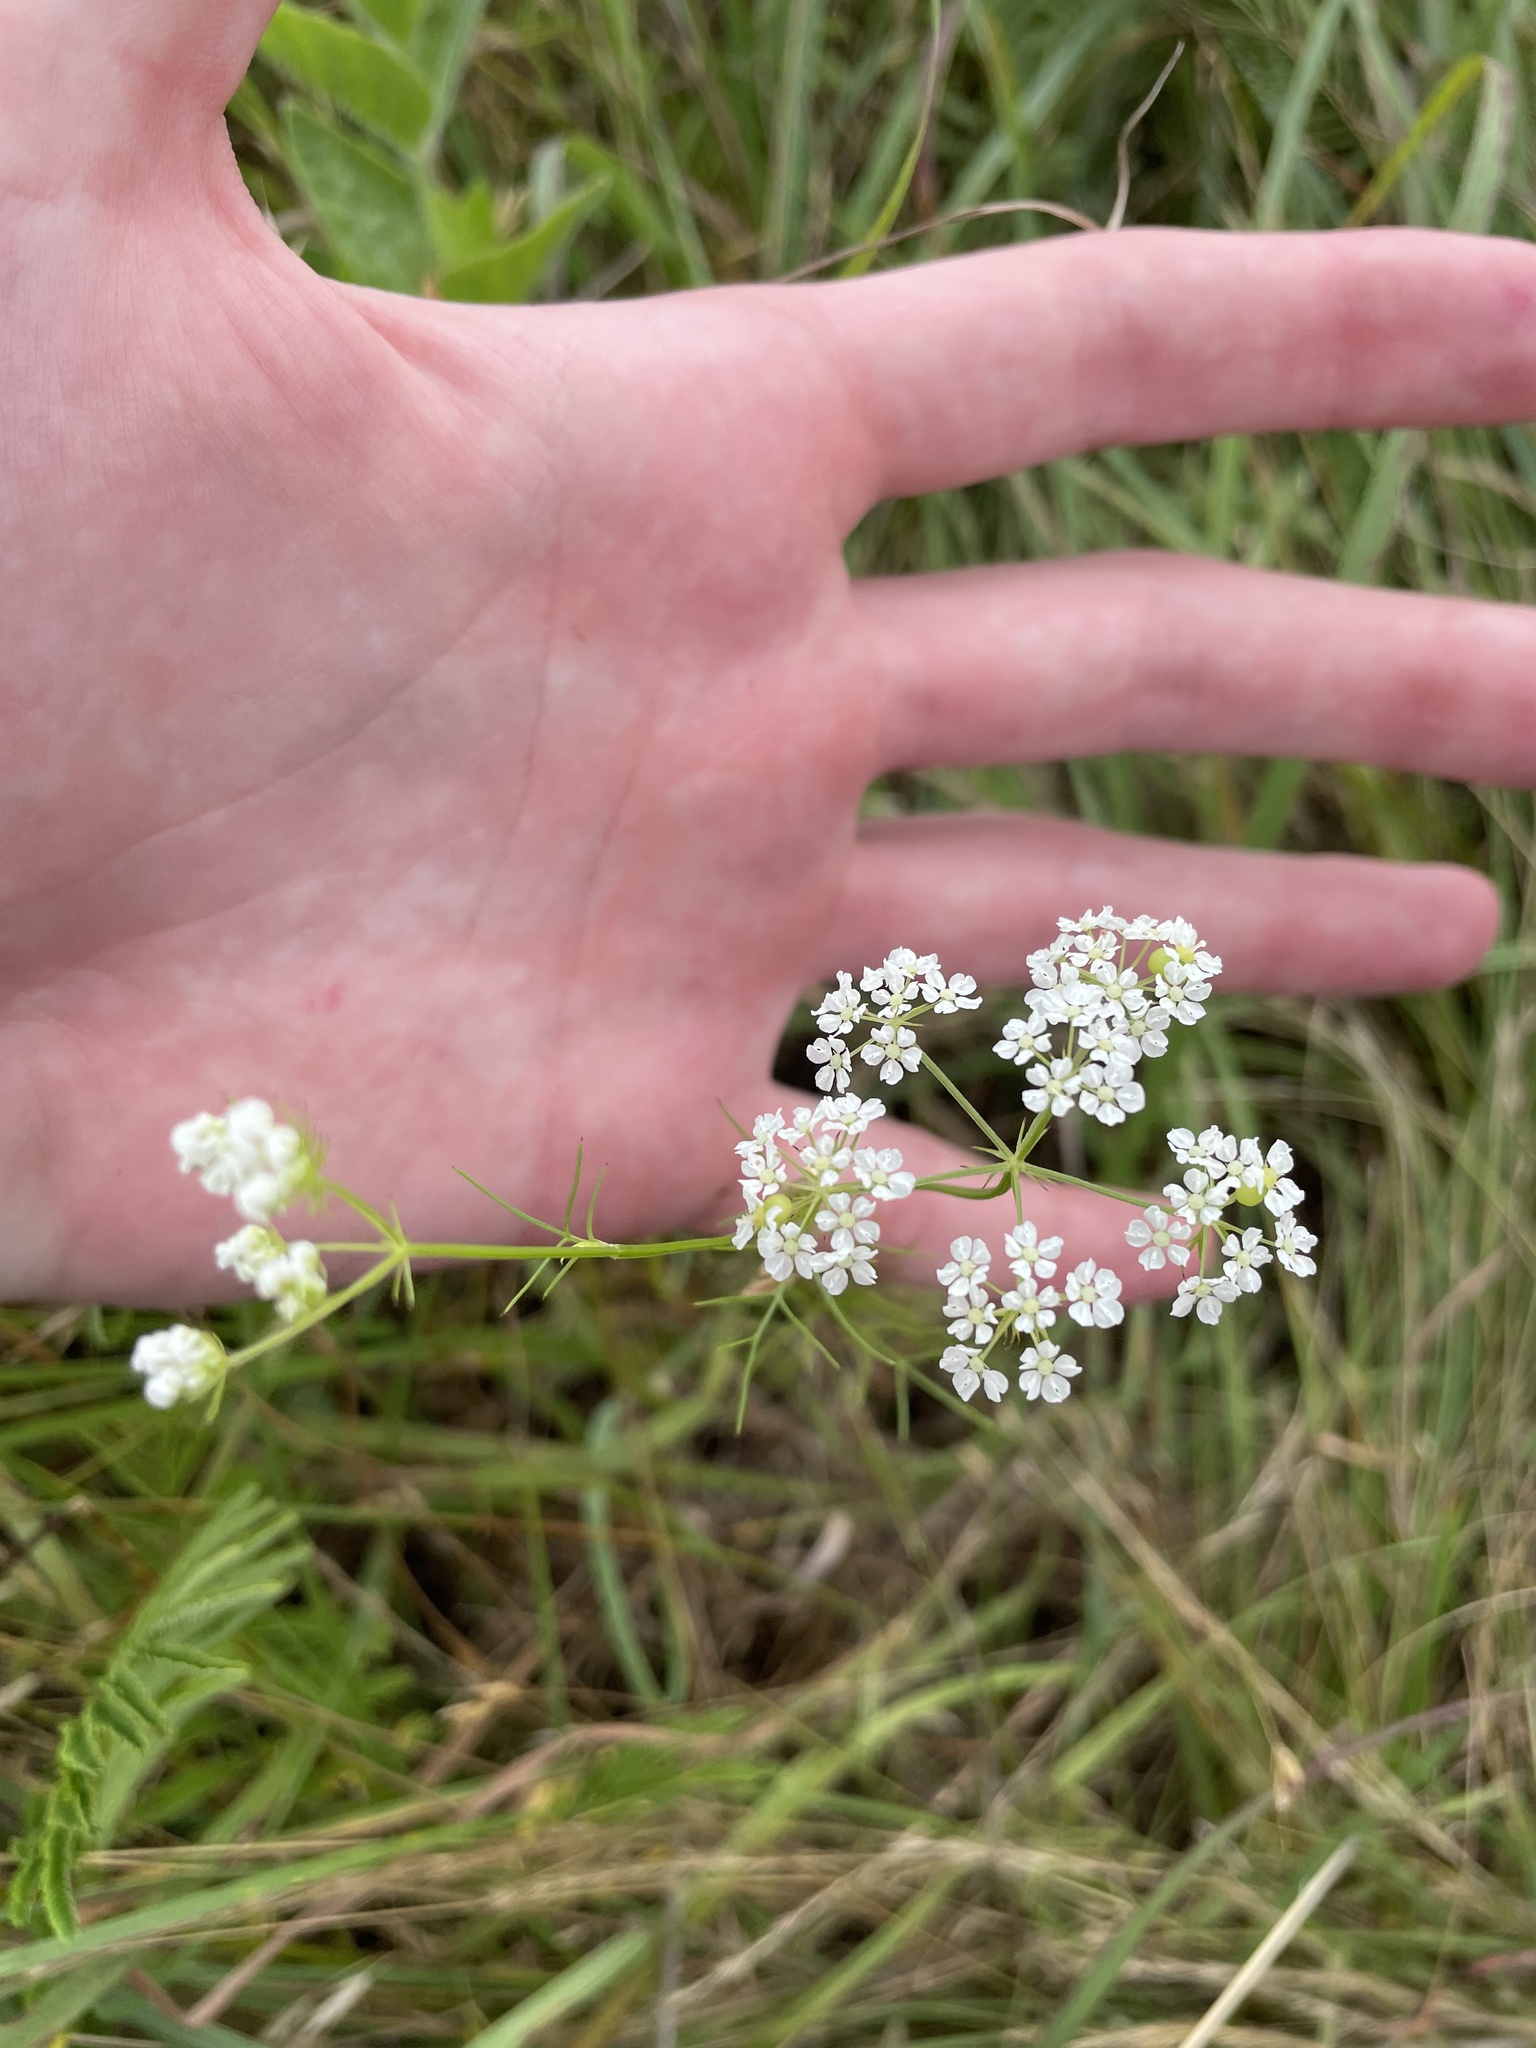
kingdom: Plantae
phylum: Tracheophyta
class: Magnoliopsida
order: Apiales
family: Apiaceae
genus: Atrema
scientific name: Atrema americanum
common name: Prairie-bishop
